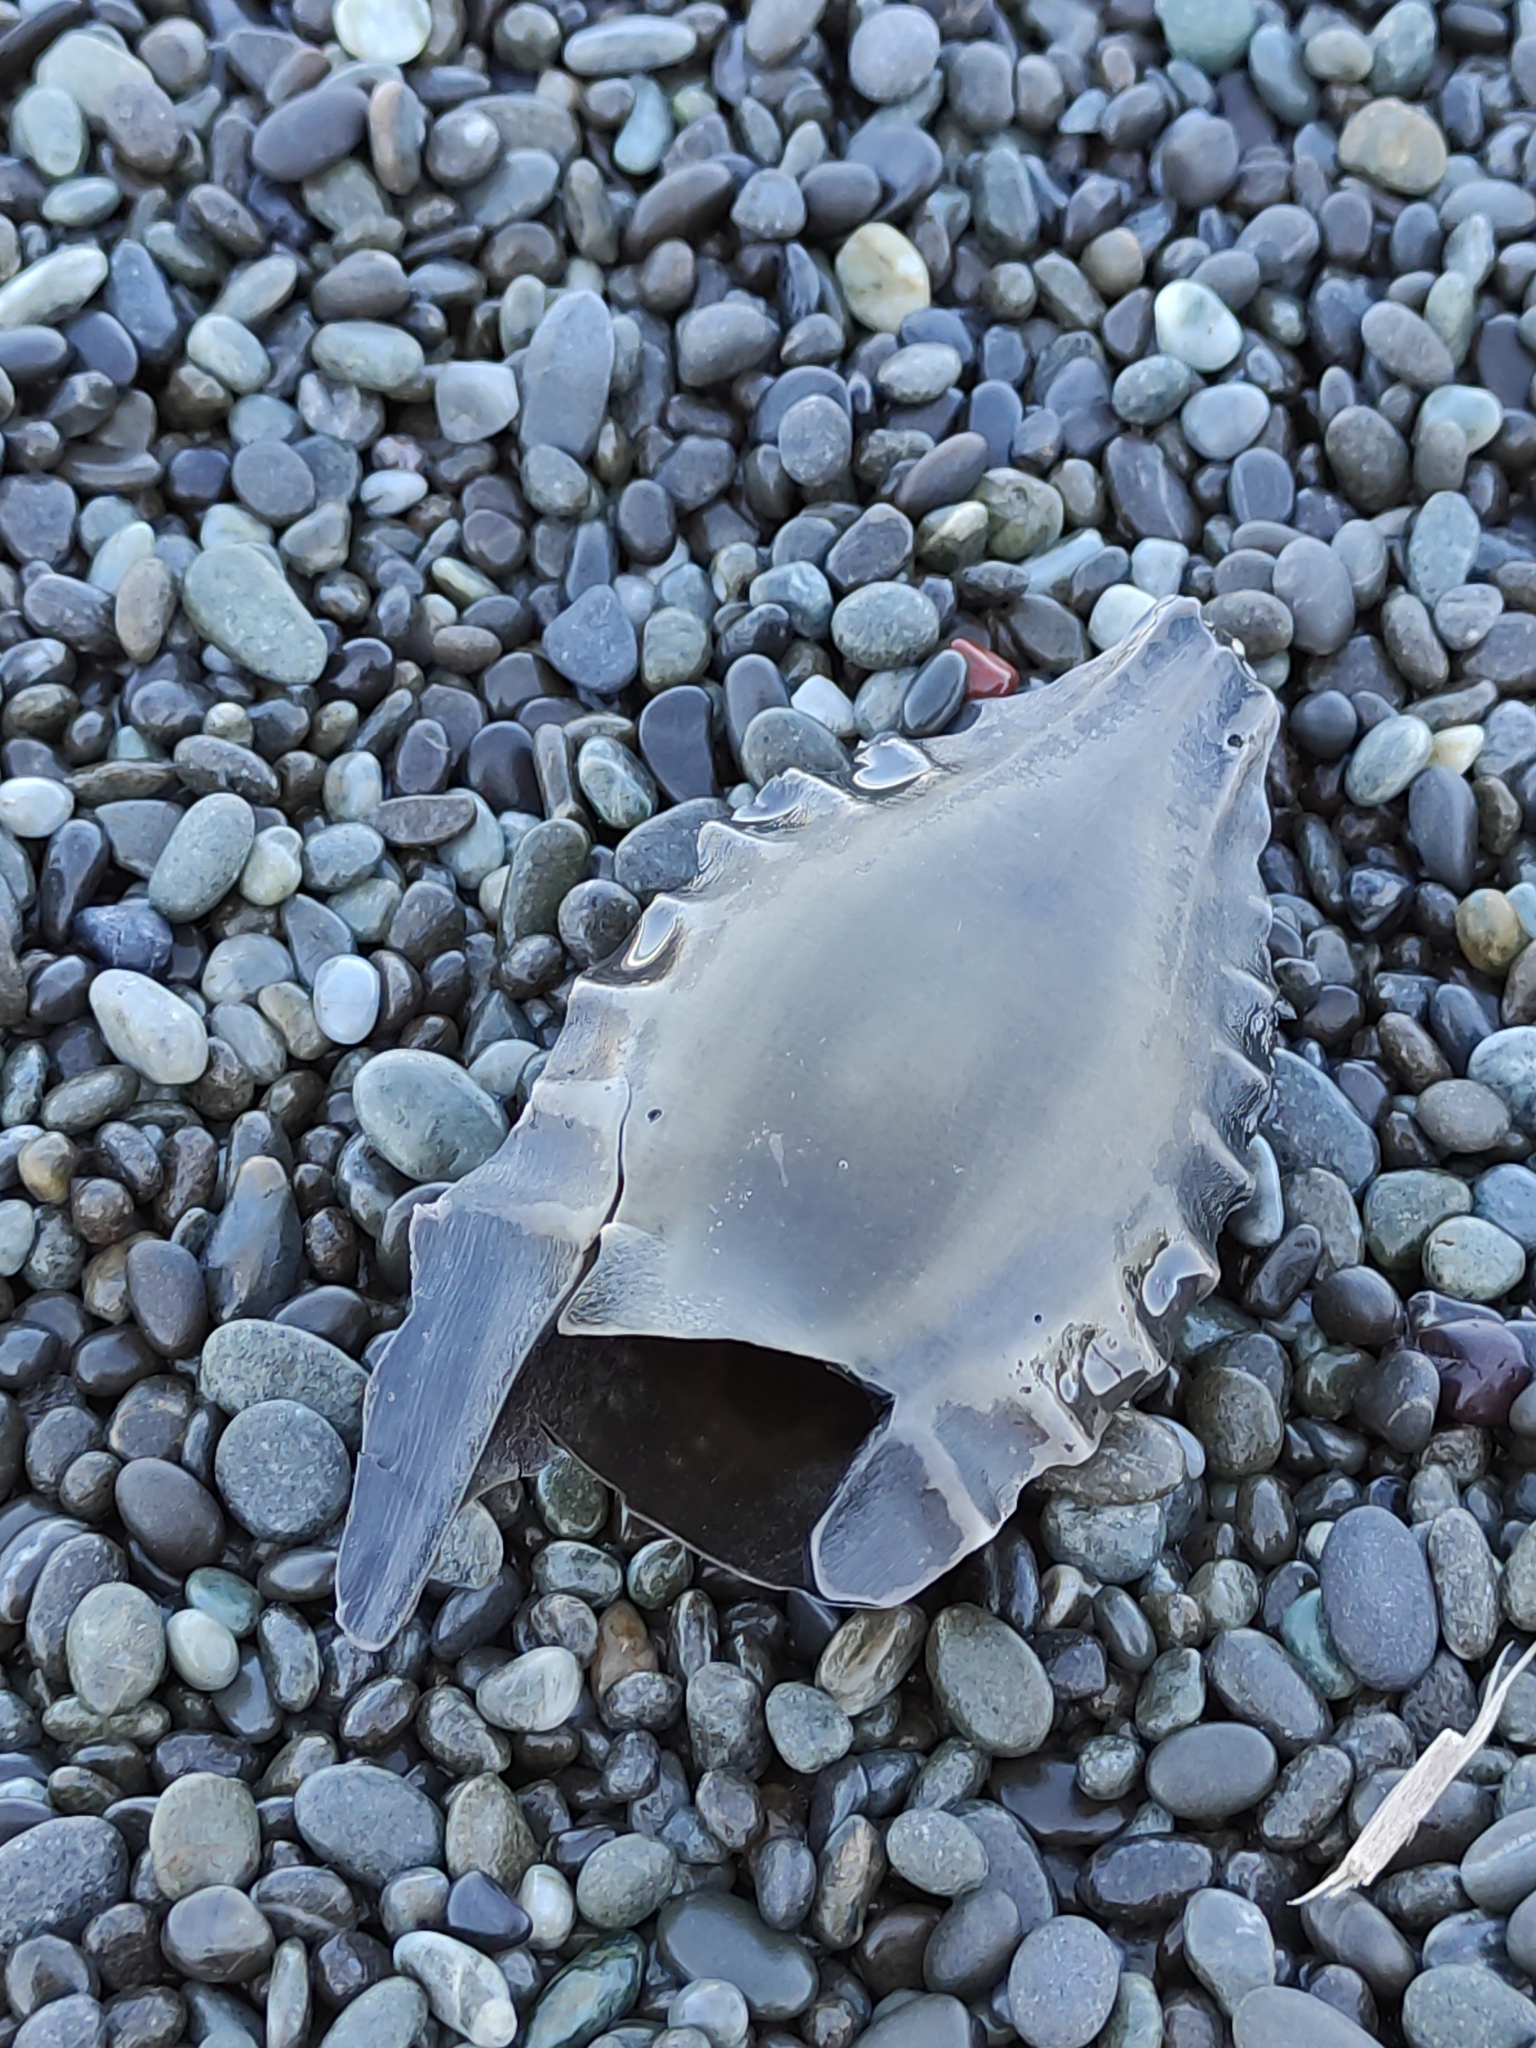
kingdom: Animalia
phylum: Chordata
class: Holocephali
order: Chimaeriformes
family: Callorhinchidae
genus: Callorhinchus
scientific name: Callorhinchus milii
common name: Elephant fish
